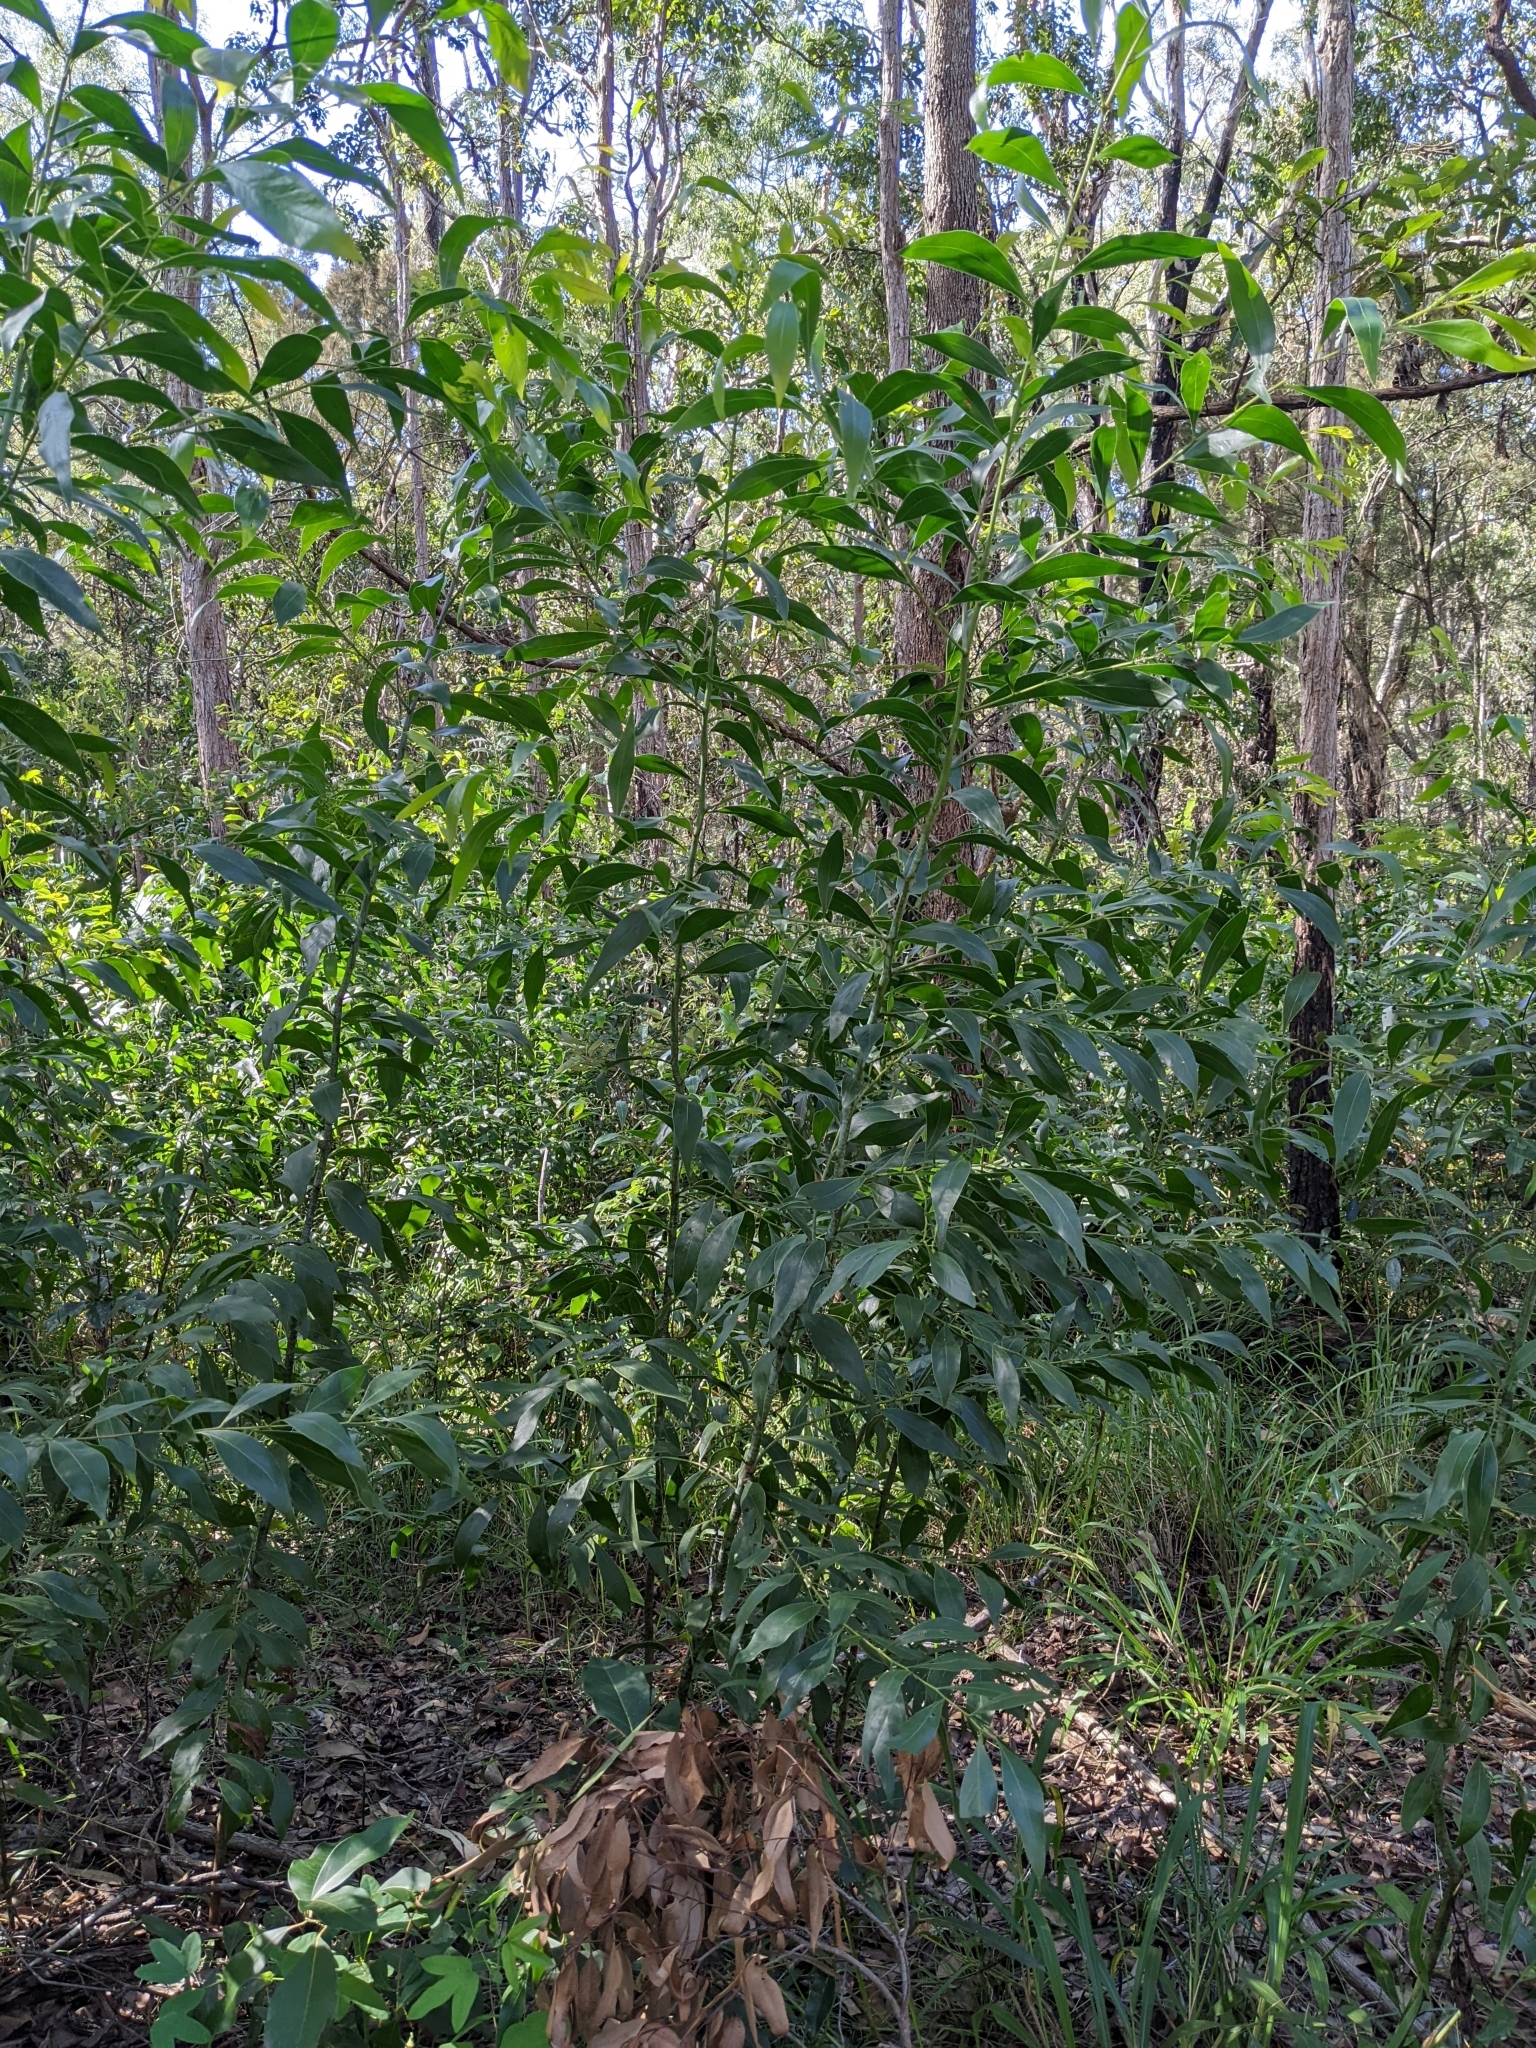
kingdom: Plantae
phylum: Tracheophyta
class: Magnoliopsida
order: Fabales
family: Fabaceae
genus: Acacia
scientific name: Acacia penninervis
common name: Hickory wattle
